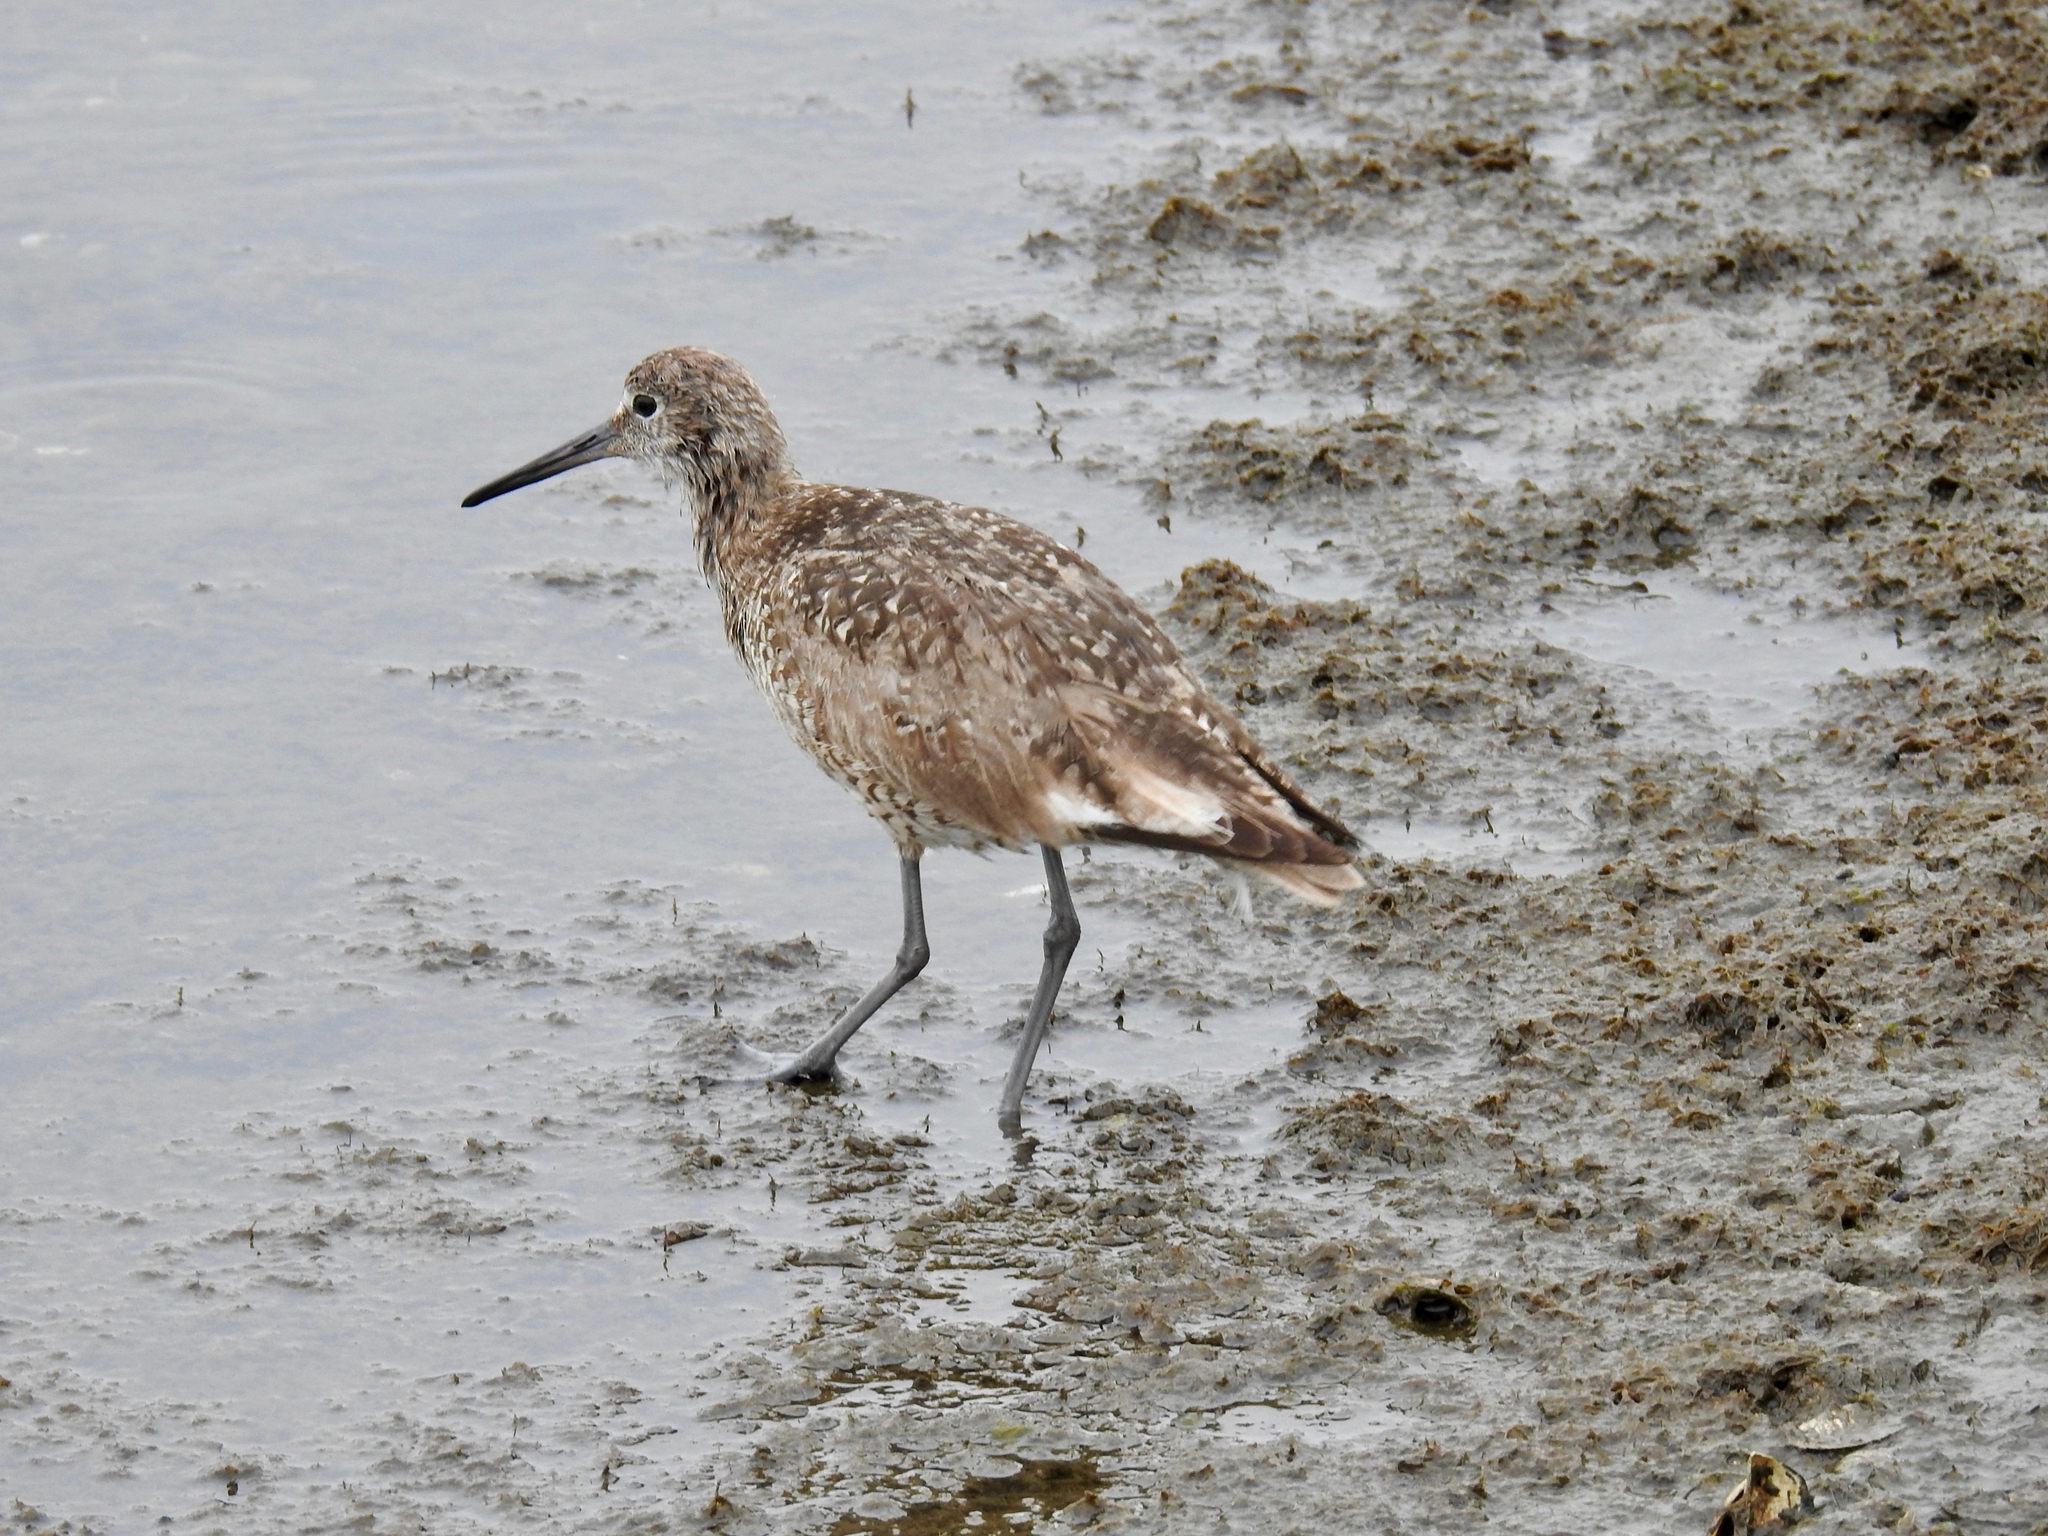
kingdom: Animalia
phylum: Chordata
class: Aves
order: Charadriiformes
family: Scolopacidae
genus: Tringa
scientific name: Tringa semipalmata
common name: Willet
